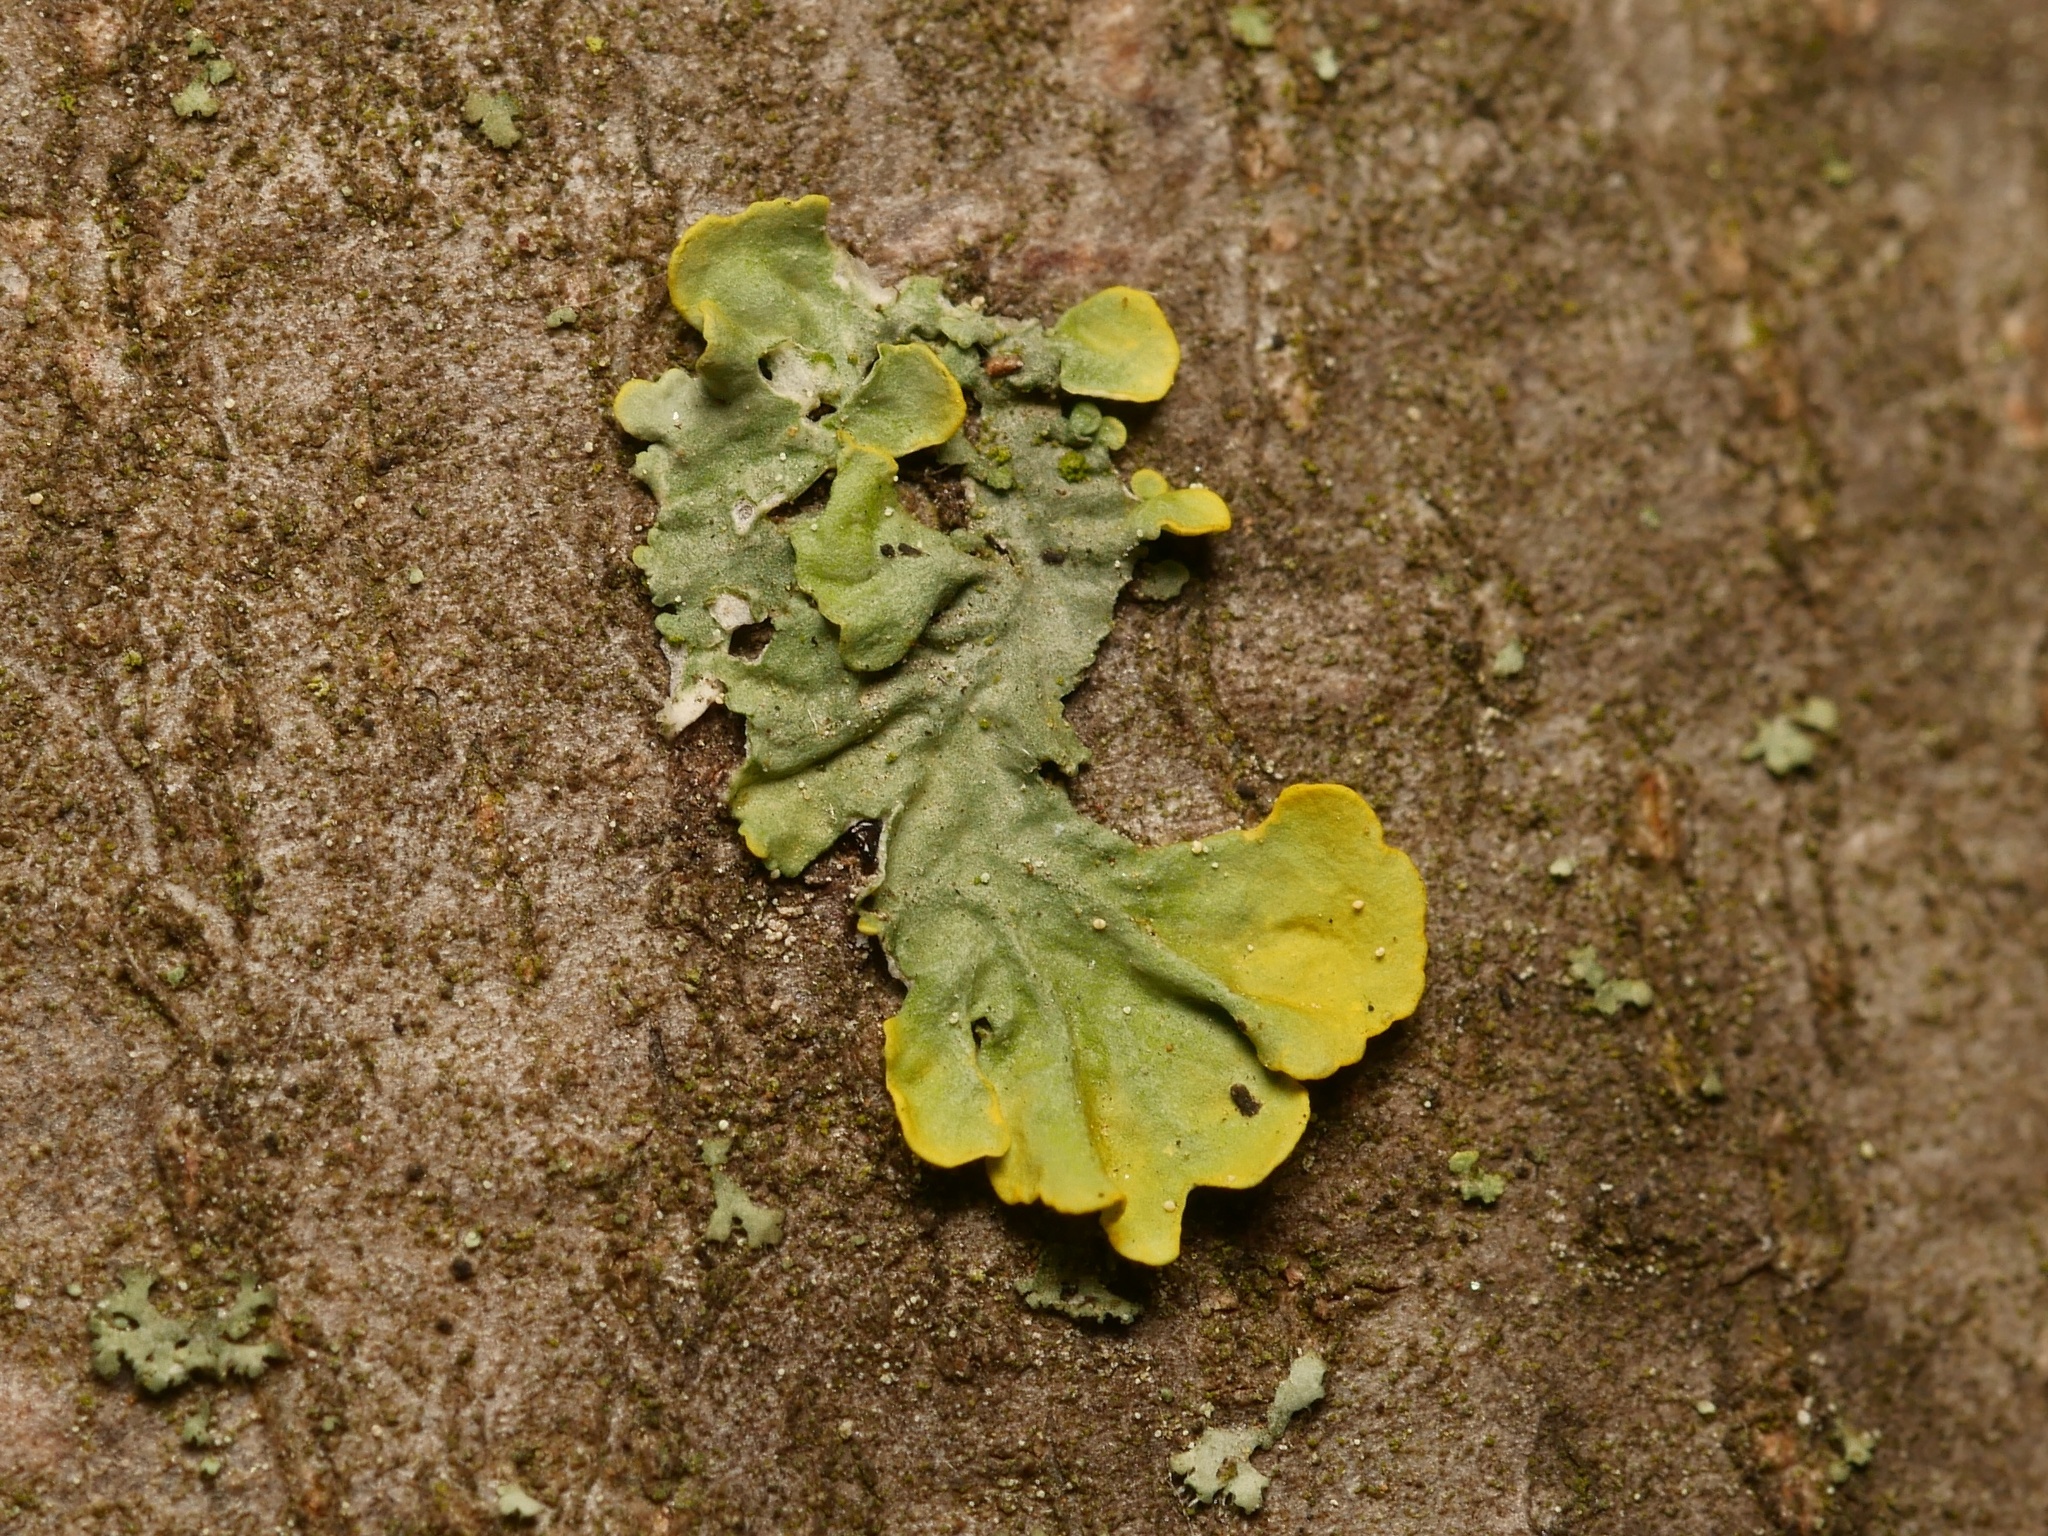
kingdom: Fungi
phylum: Ascomycota
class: Lecanoromycetes
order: Teloschistales
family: Teloschistaceae
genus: Xanthoria
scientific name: Xanthoria parietina
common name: Common orange lichen
